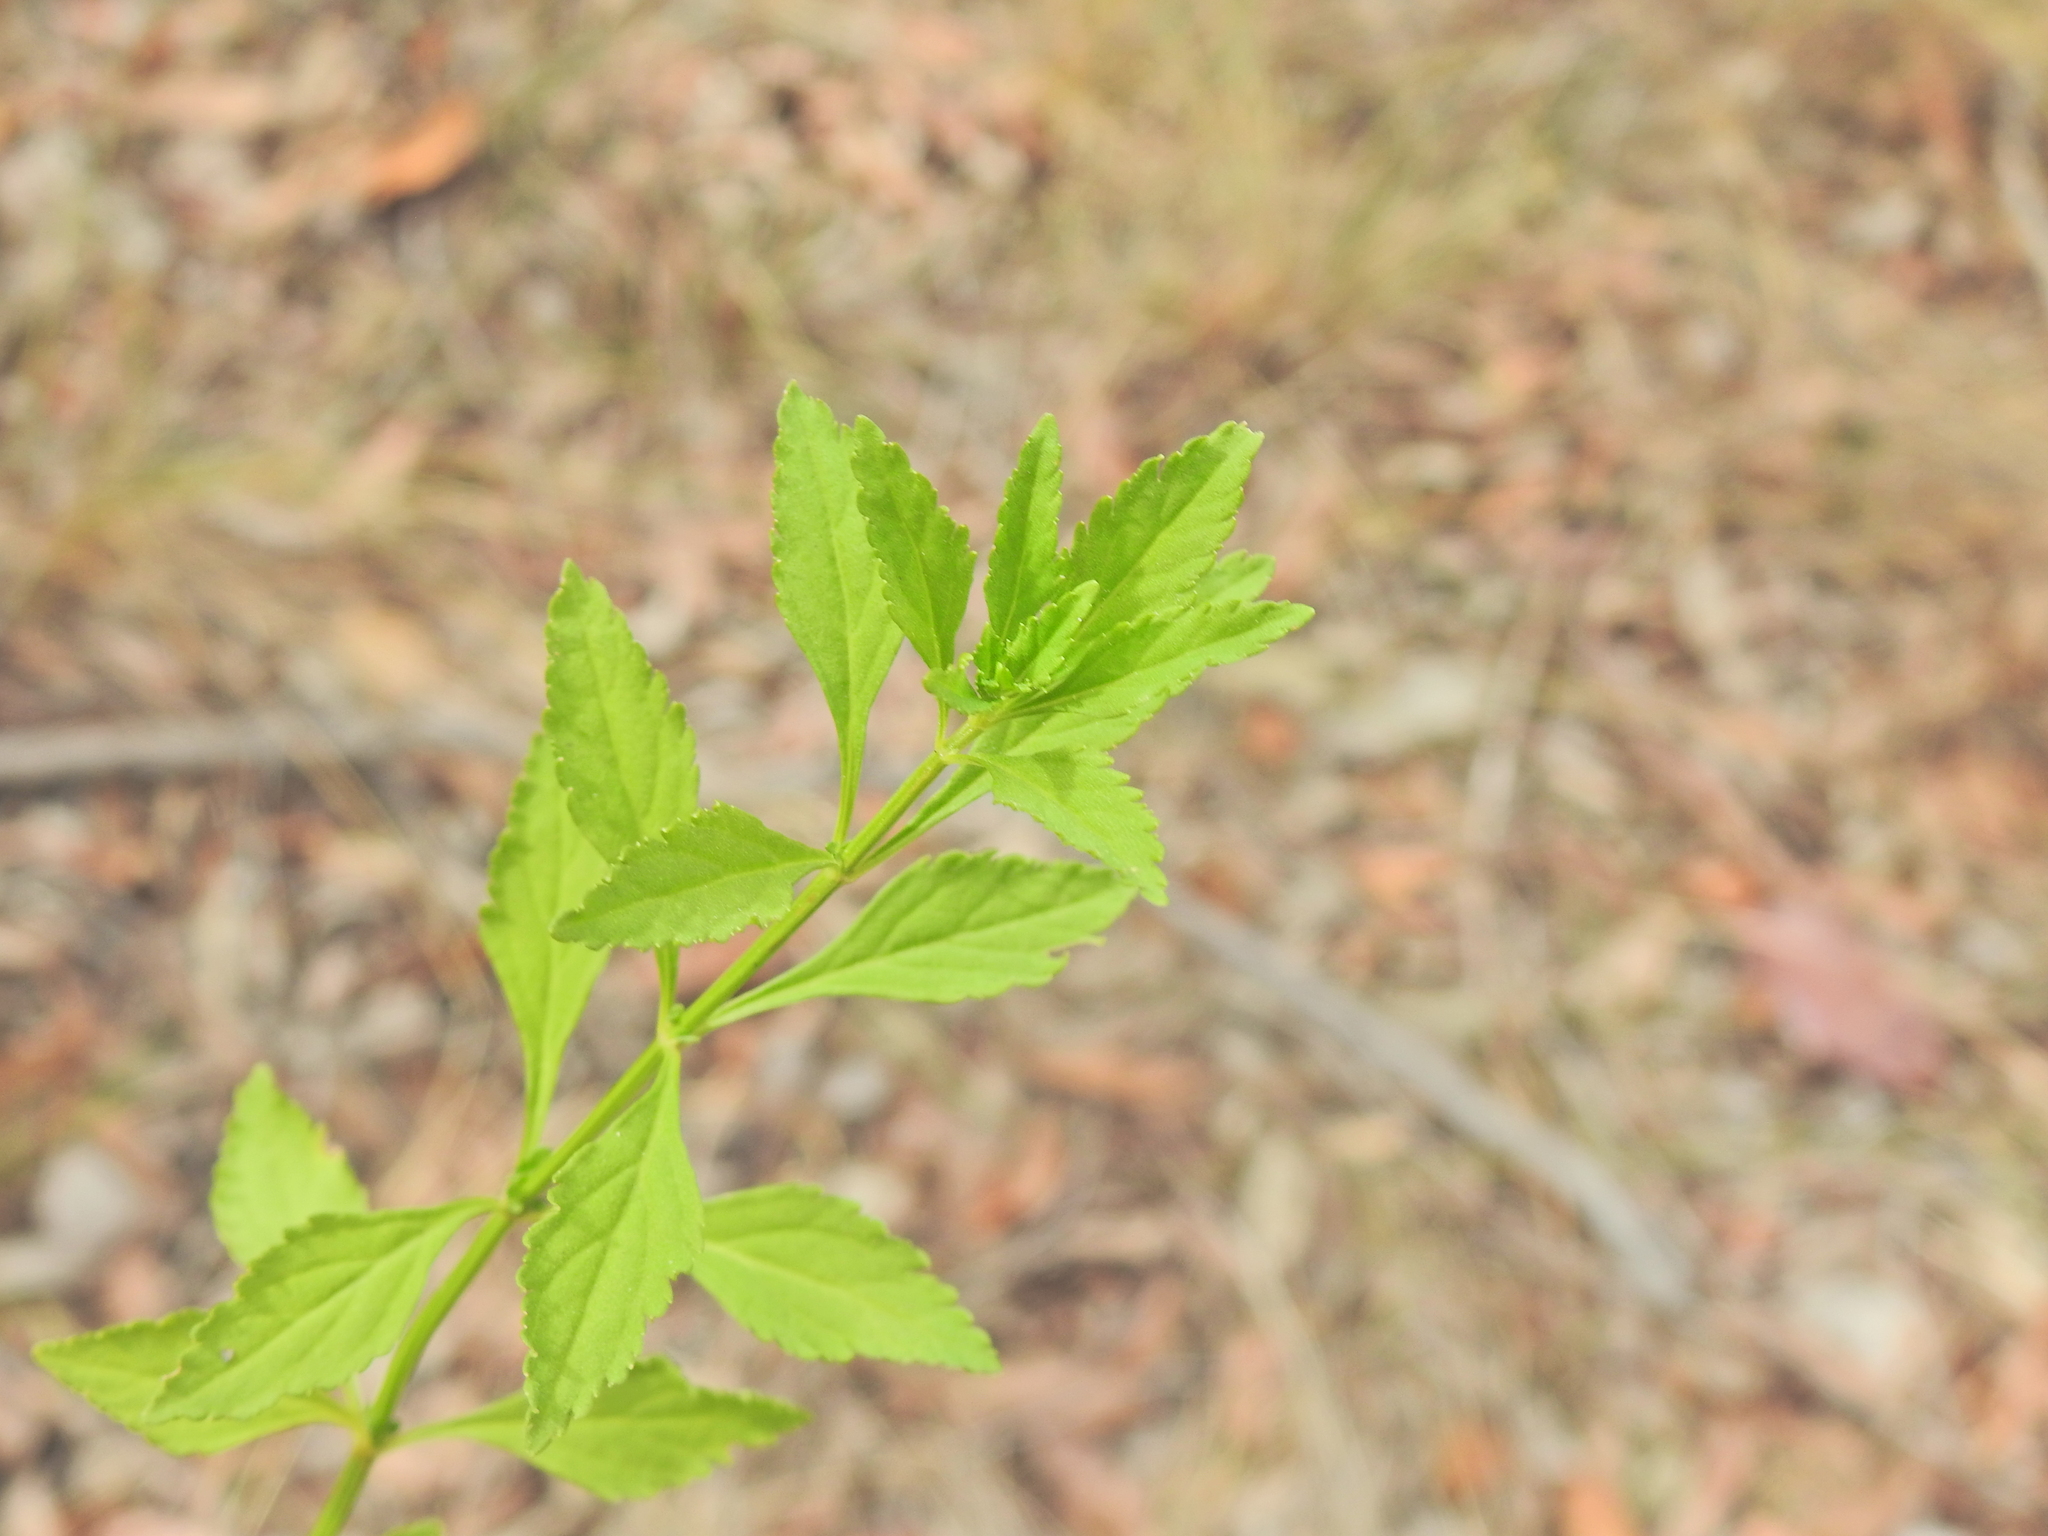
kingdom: Plantae
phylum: Tracheophyta
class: Magnoliopsida
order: Lamiales
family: Plantaginaceae
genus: Scoparia
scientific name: Scoparia dulcis
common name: Scoparia-weed
